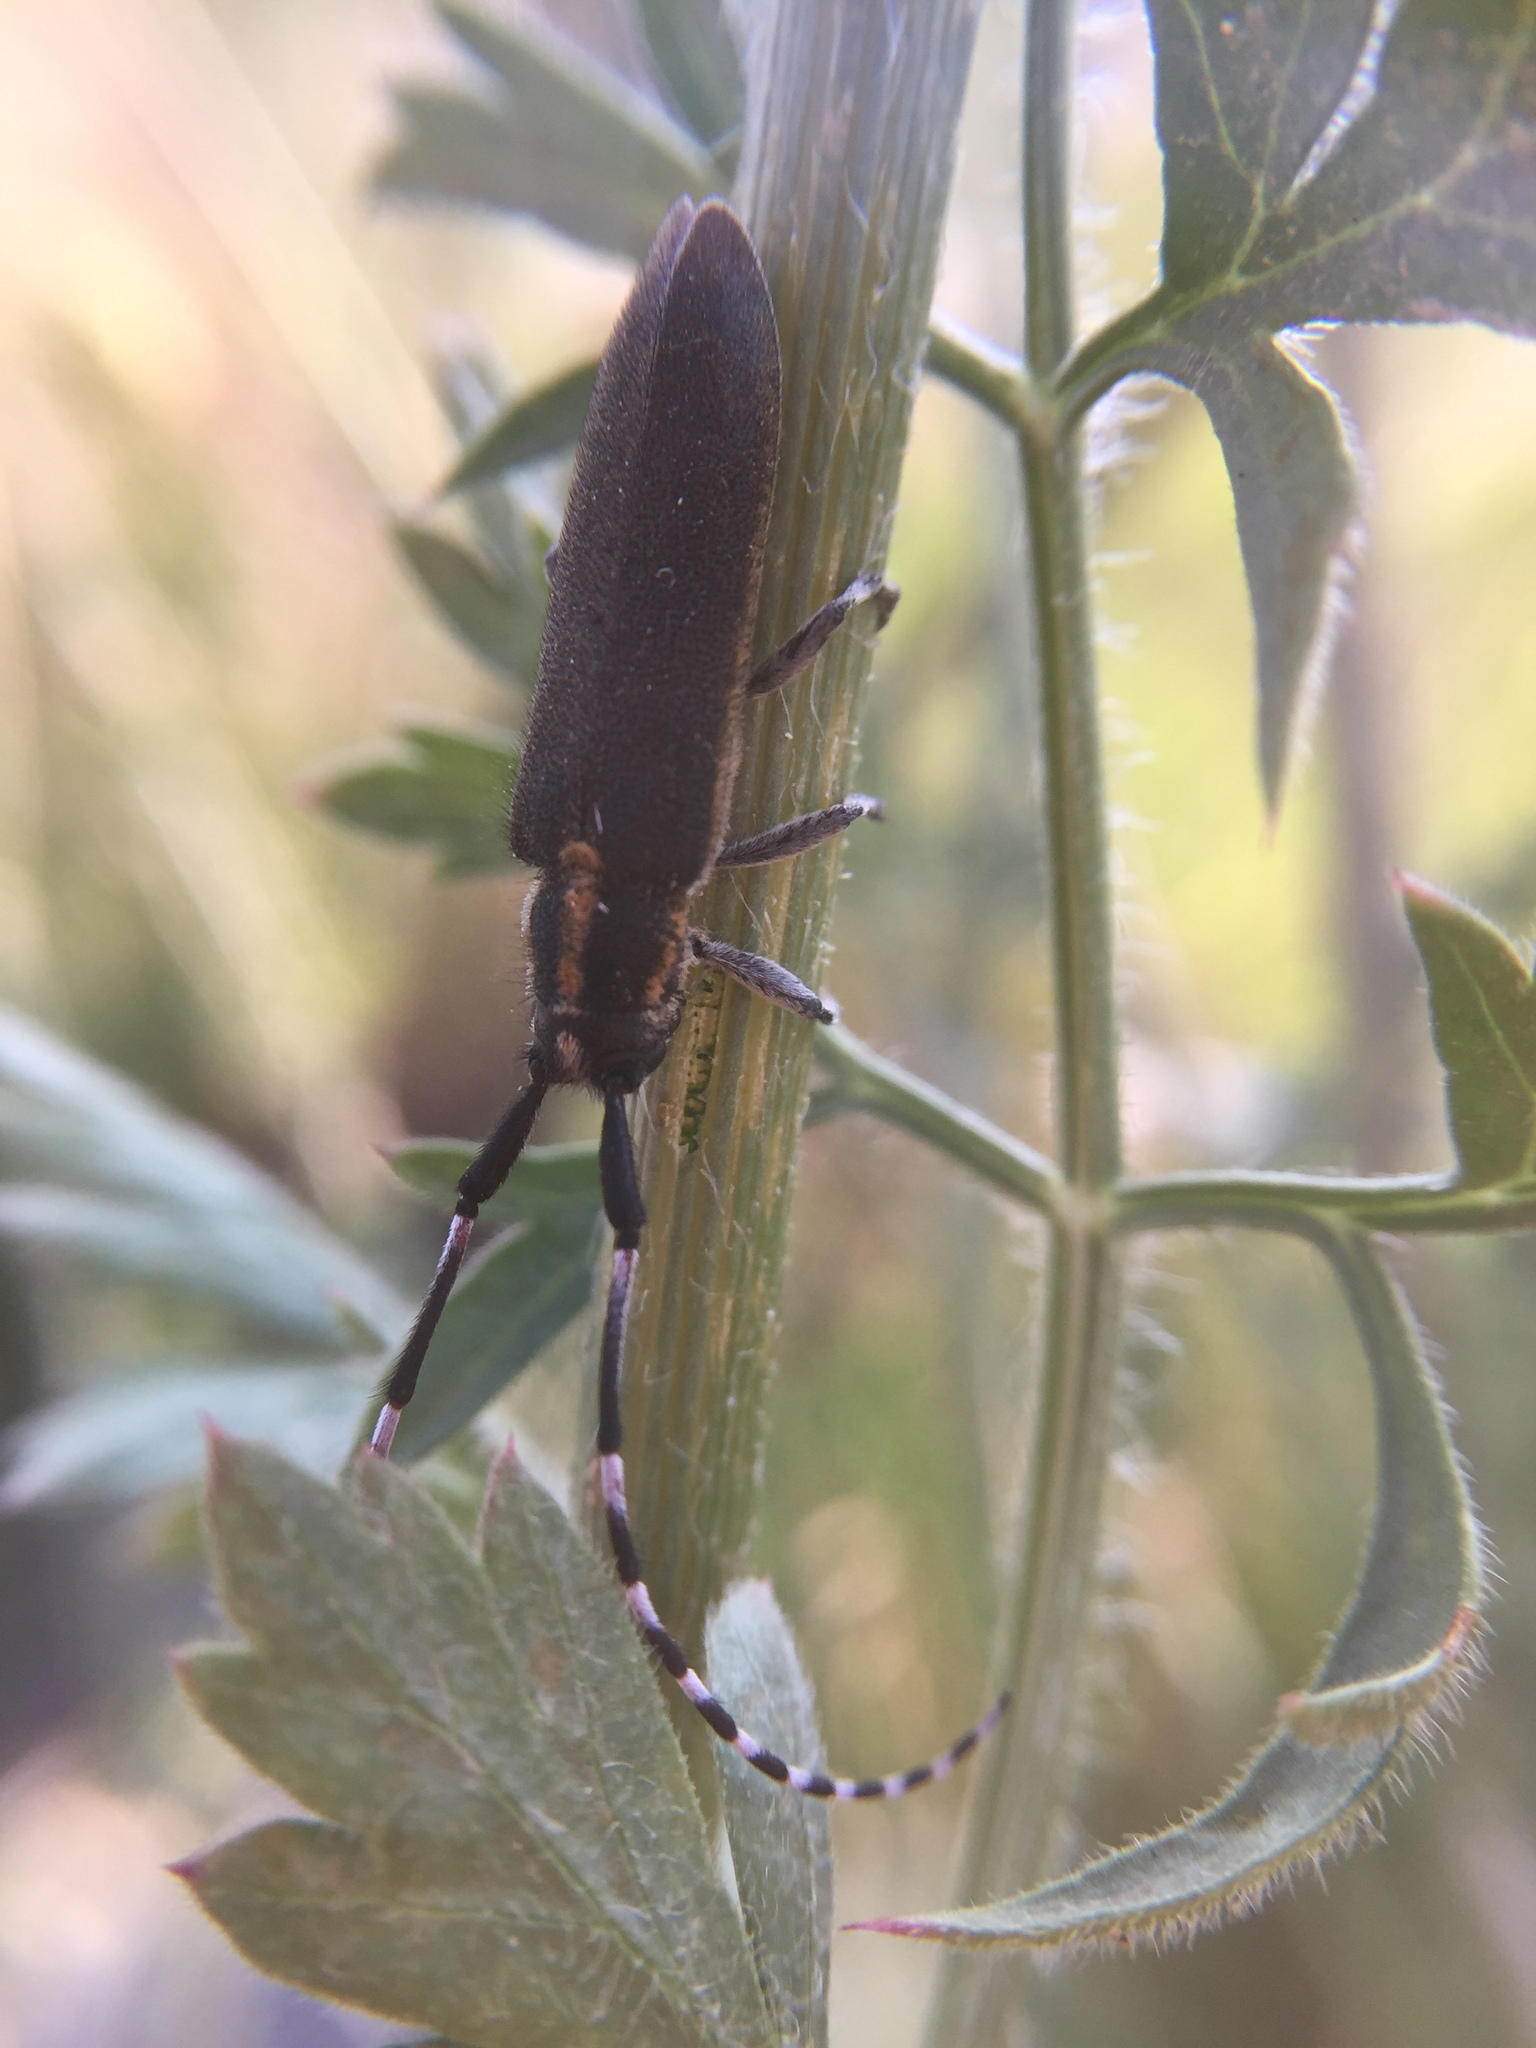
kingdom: Animalia
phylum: Arthropoda
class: Insecta
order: Coleoptera
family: Cerambycidae
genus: Agapanthia
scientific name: Agapanthia cynarae
